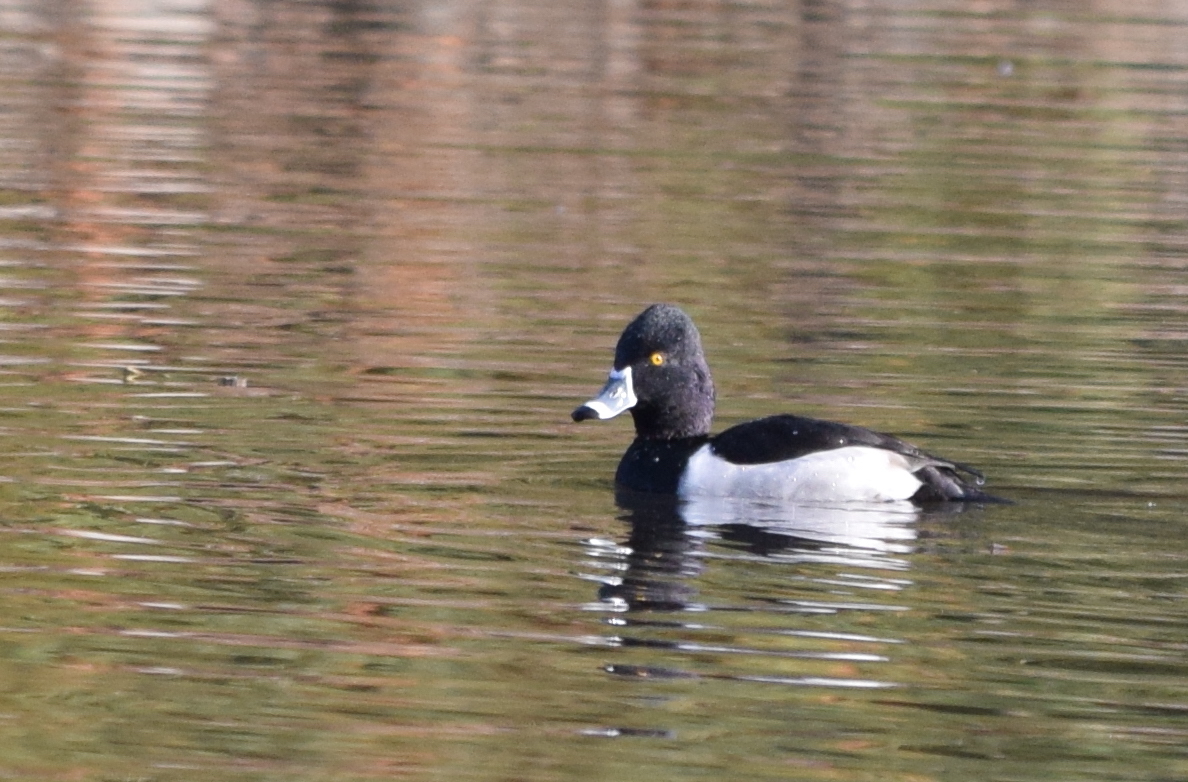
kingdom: Animalia
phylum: Chordata
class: Aves
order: Anseriformes
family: Anatidae
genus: Aythya
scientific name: Aythya collaris
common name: Ring-necked duck
